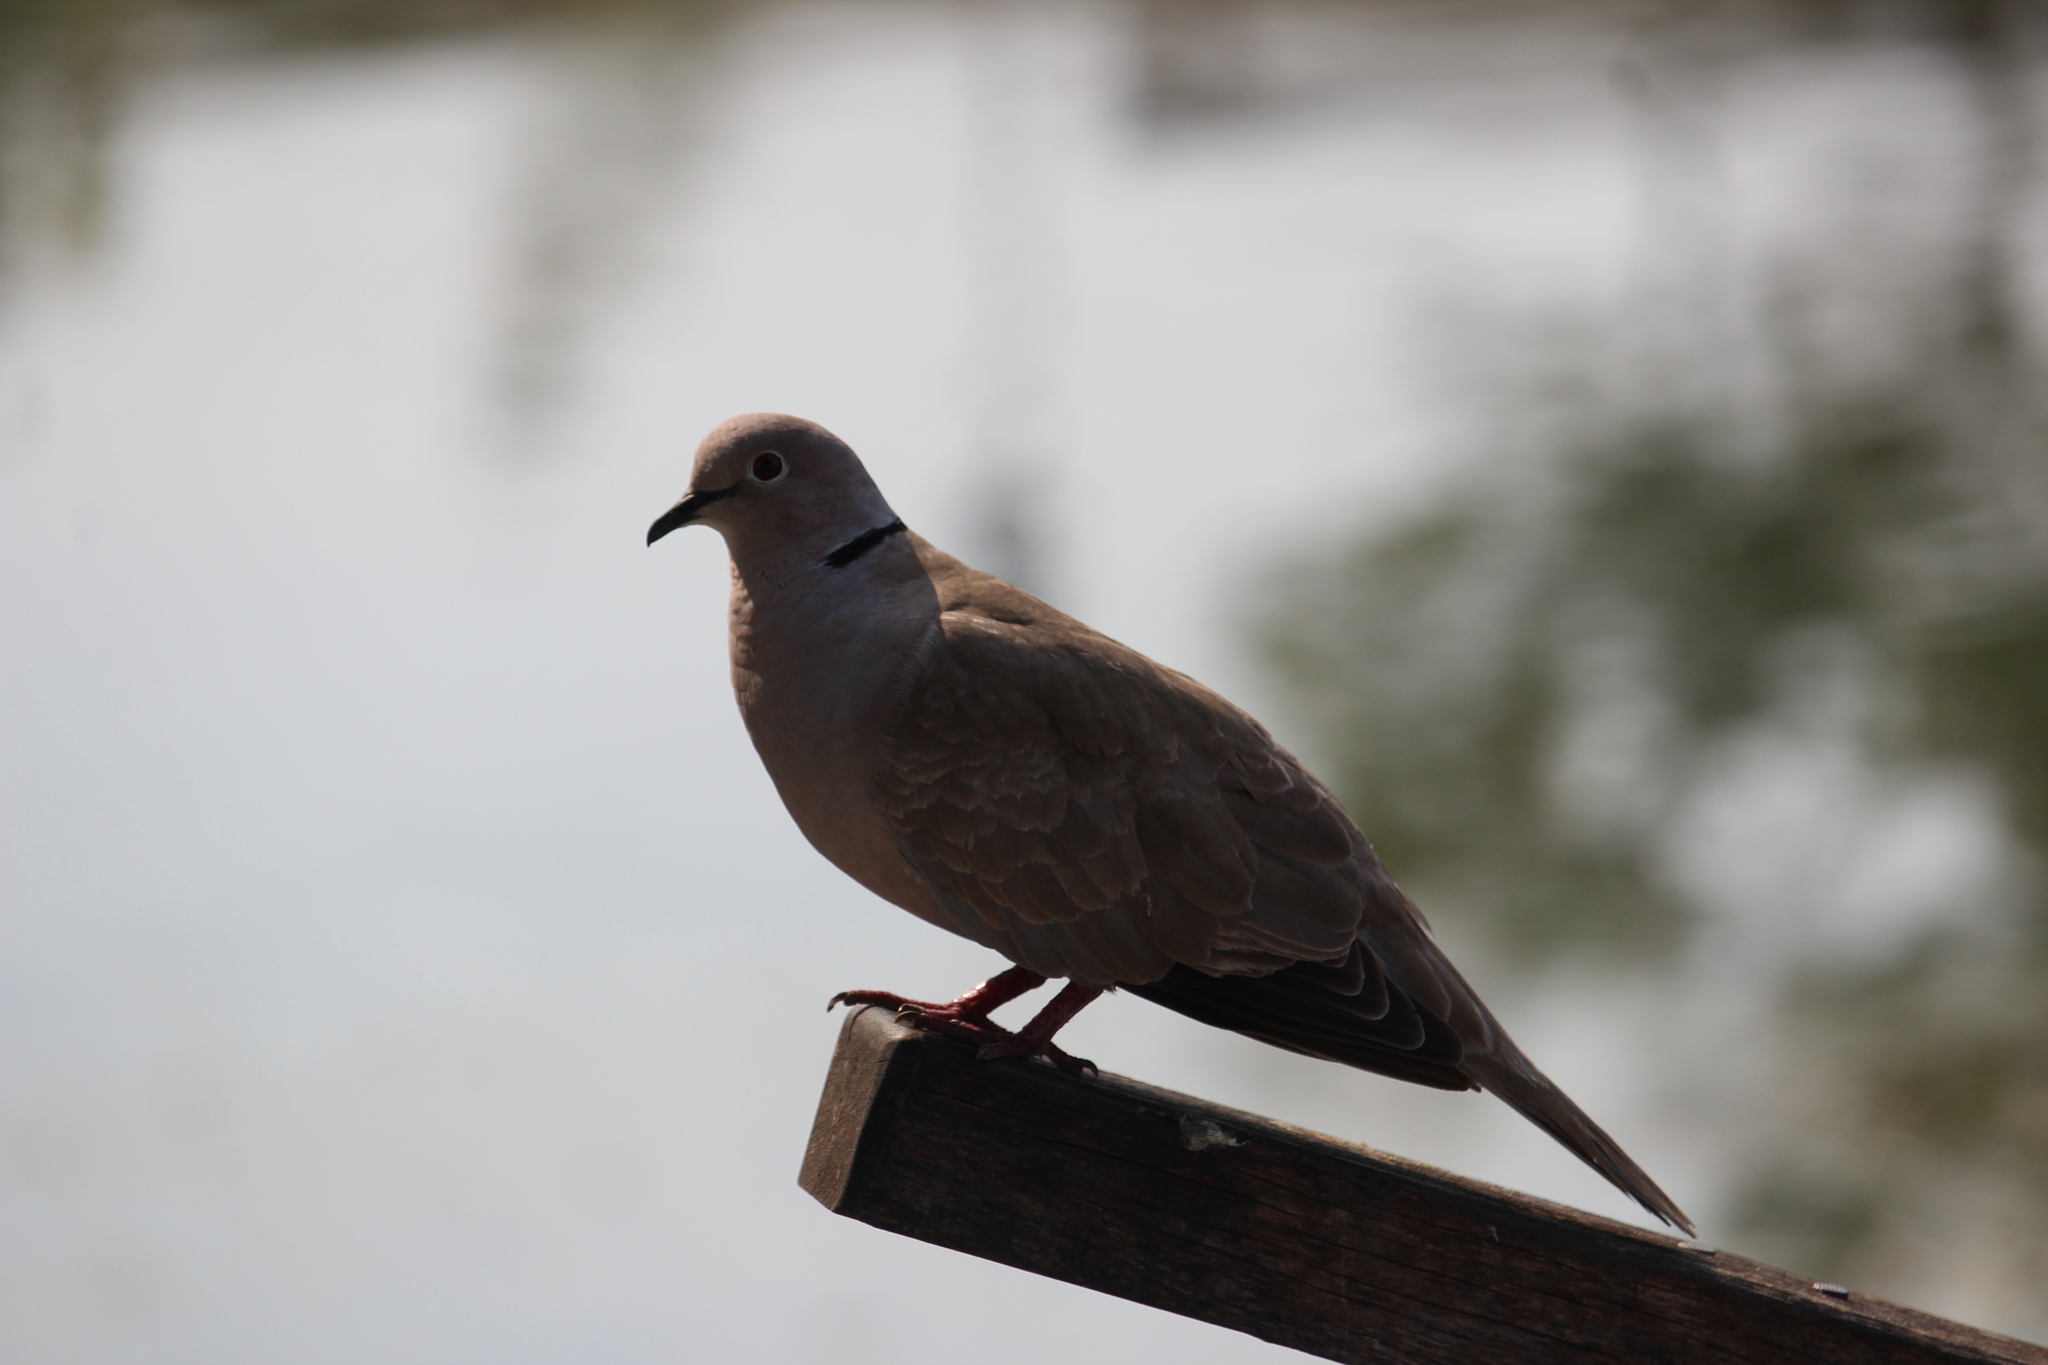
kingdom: Animalia
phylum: Chordata
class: Aves
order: Columbiformes
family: Columbidae
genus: Streptopelia
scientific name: Streptopelia decaocto
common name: Eurasian collared dove
